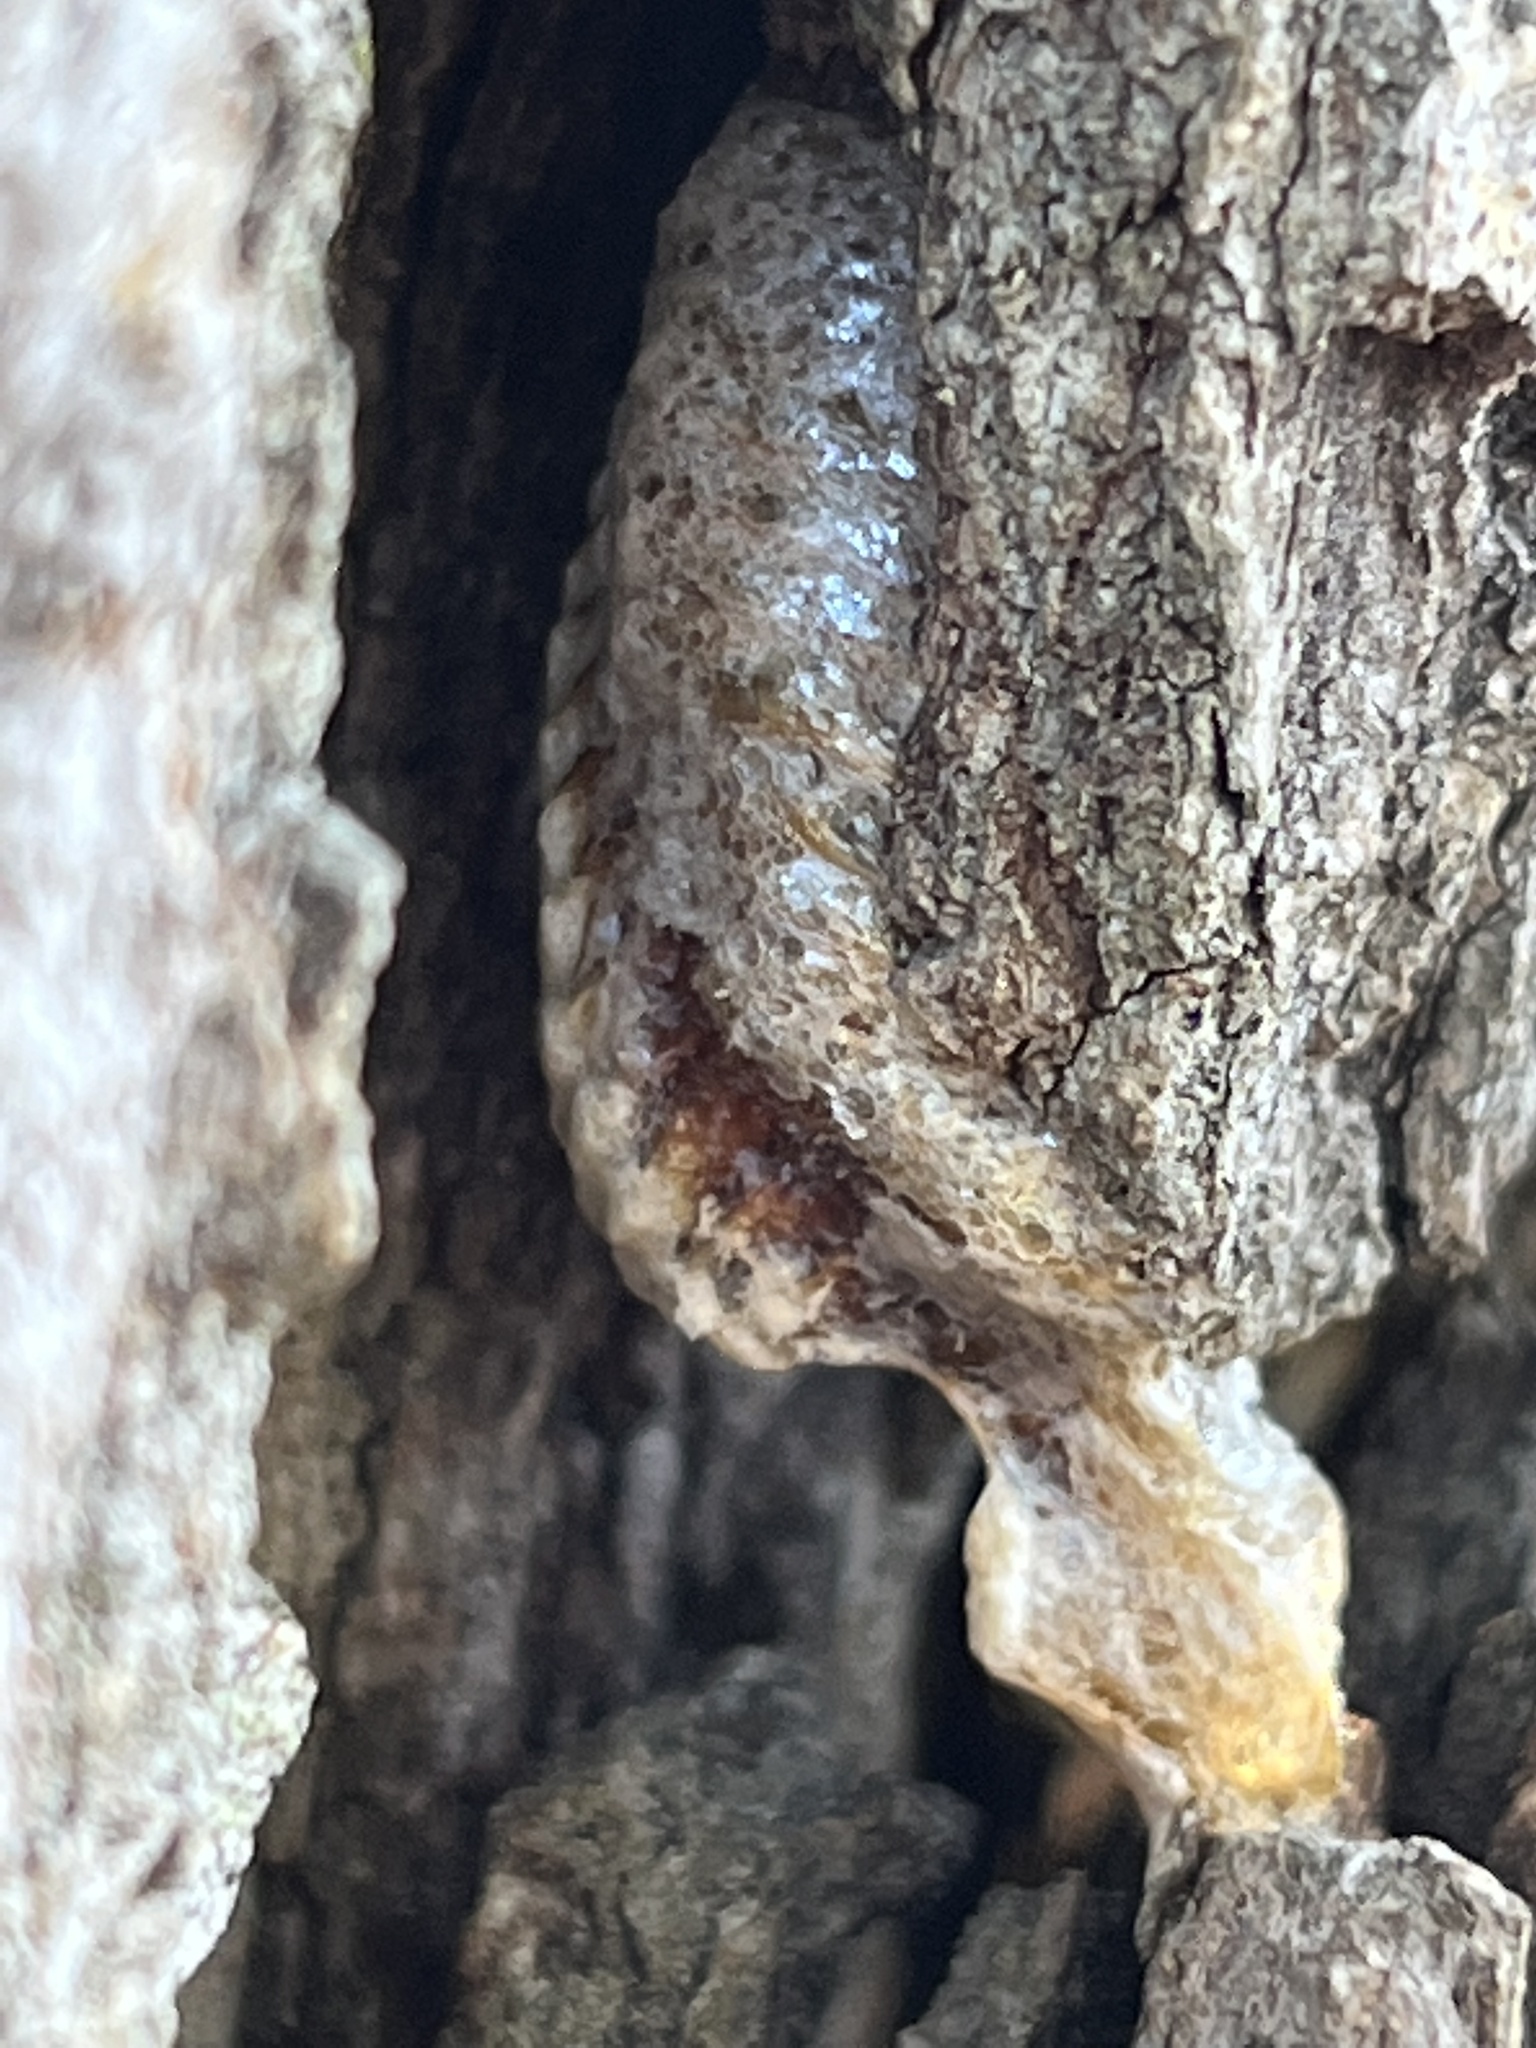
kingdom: Animalia
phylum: Arthropoda
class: Insecta
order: Mantodea
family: Mantidae
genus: Stagmomantis
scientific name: Stagmomantis carolina
